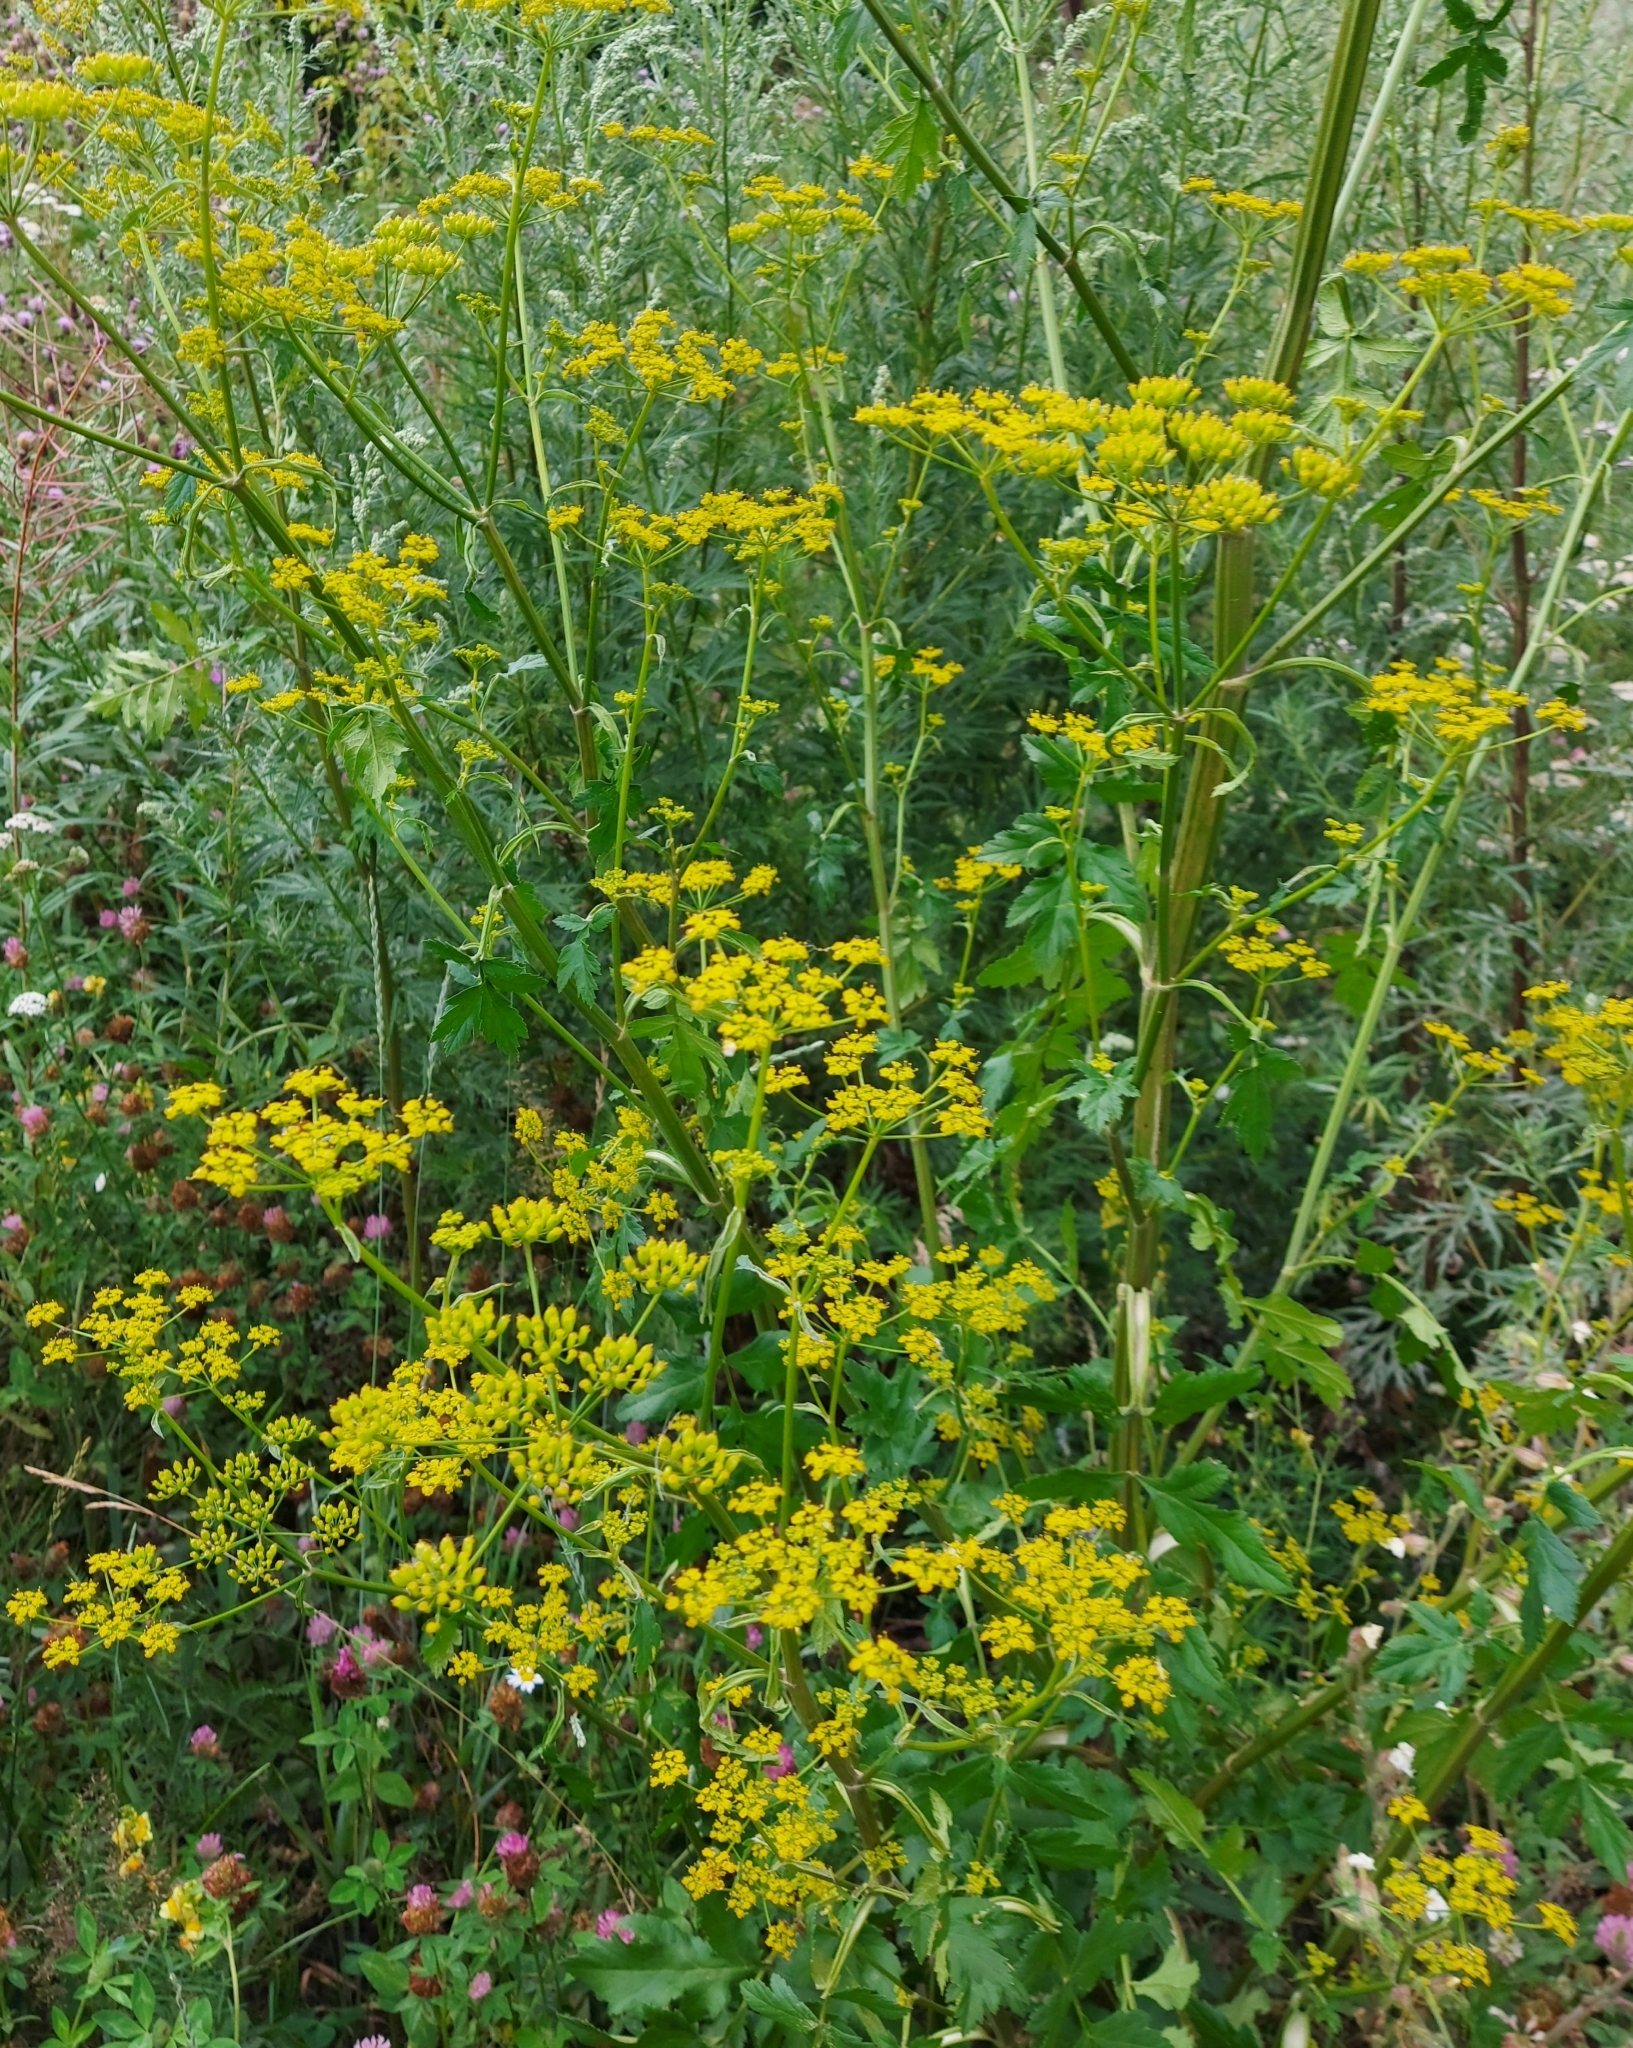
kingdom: Plantae
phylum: Tracheophyta
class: Magnoliopsida
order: Apiales
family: Apiaceae
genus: Pastinaca
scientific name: Pastinaca sativa
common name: Wild parsnip
